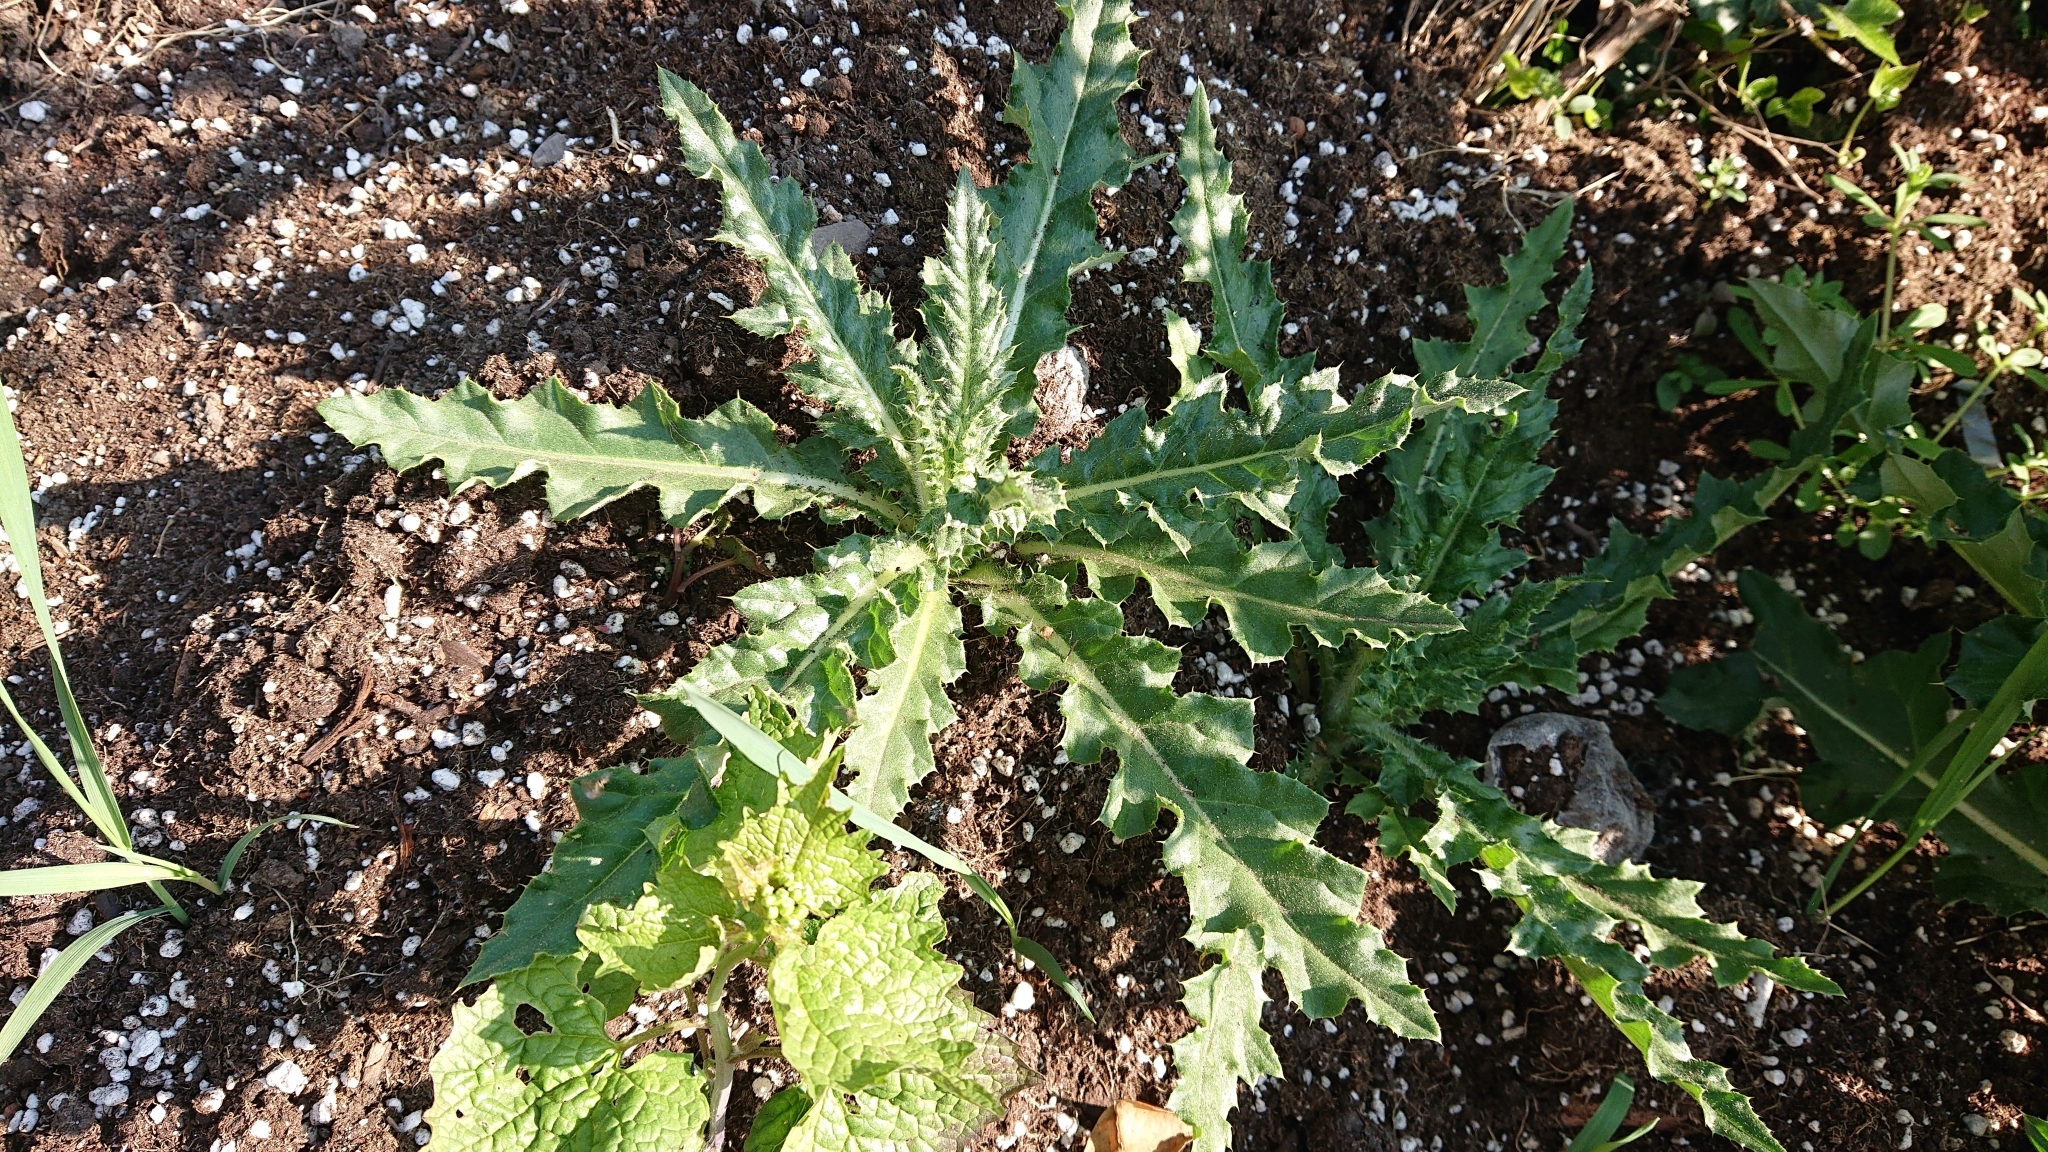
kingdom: Plantae
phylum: Tracheophyta
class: Magnoliopsida
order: Asterales
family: Asteraceae
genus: Cirsium
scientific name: Cirsium arvense
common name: Creeping thistle
